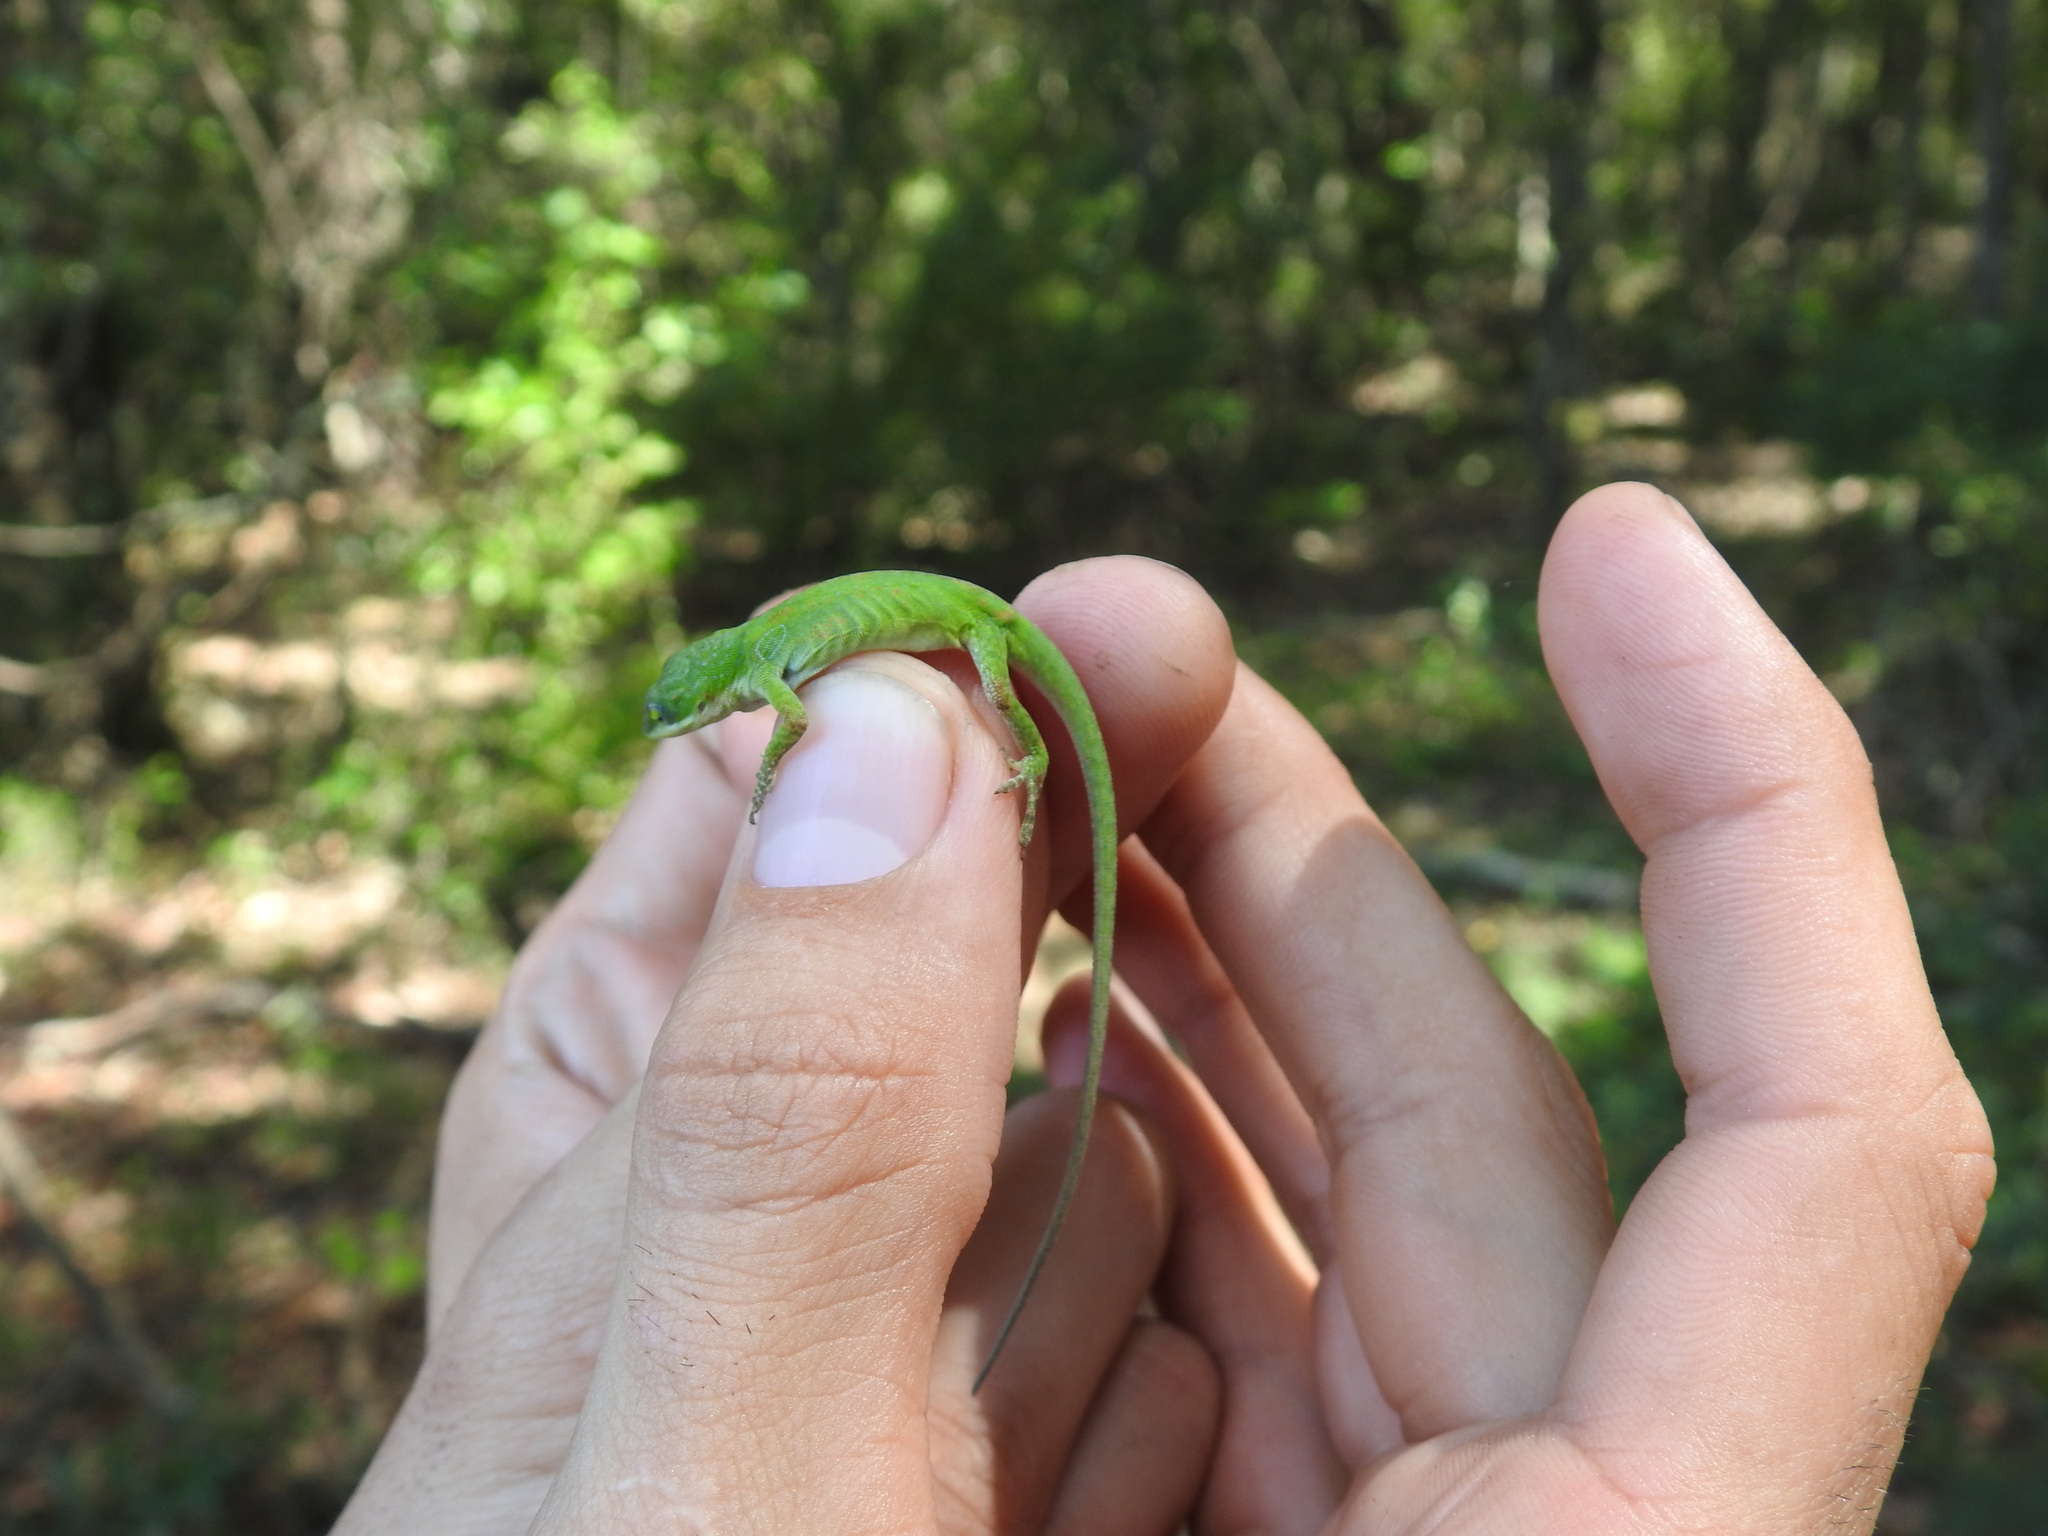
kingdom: Animalia
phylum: Chordata
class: Squamata
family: Dactyloidae
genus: Anolis
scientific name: Anolis carolinensis
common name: Green anole
